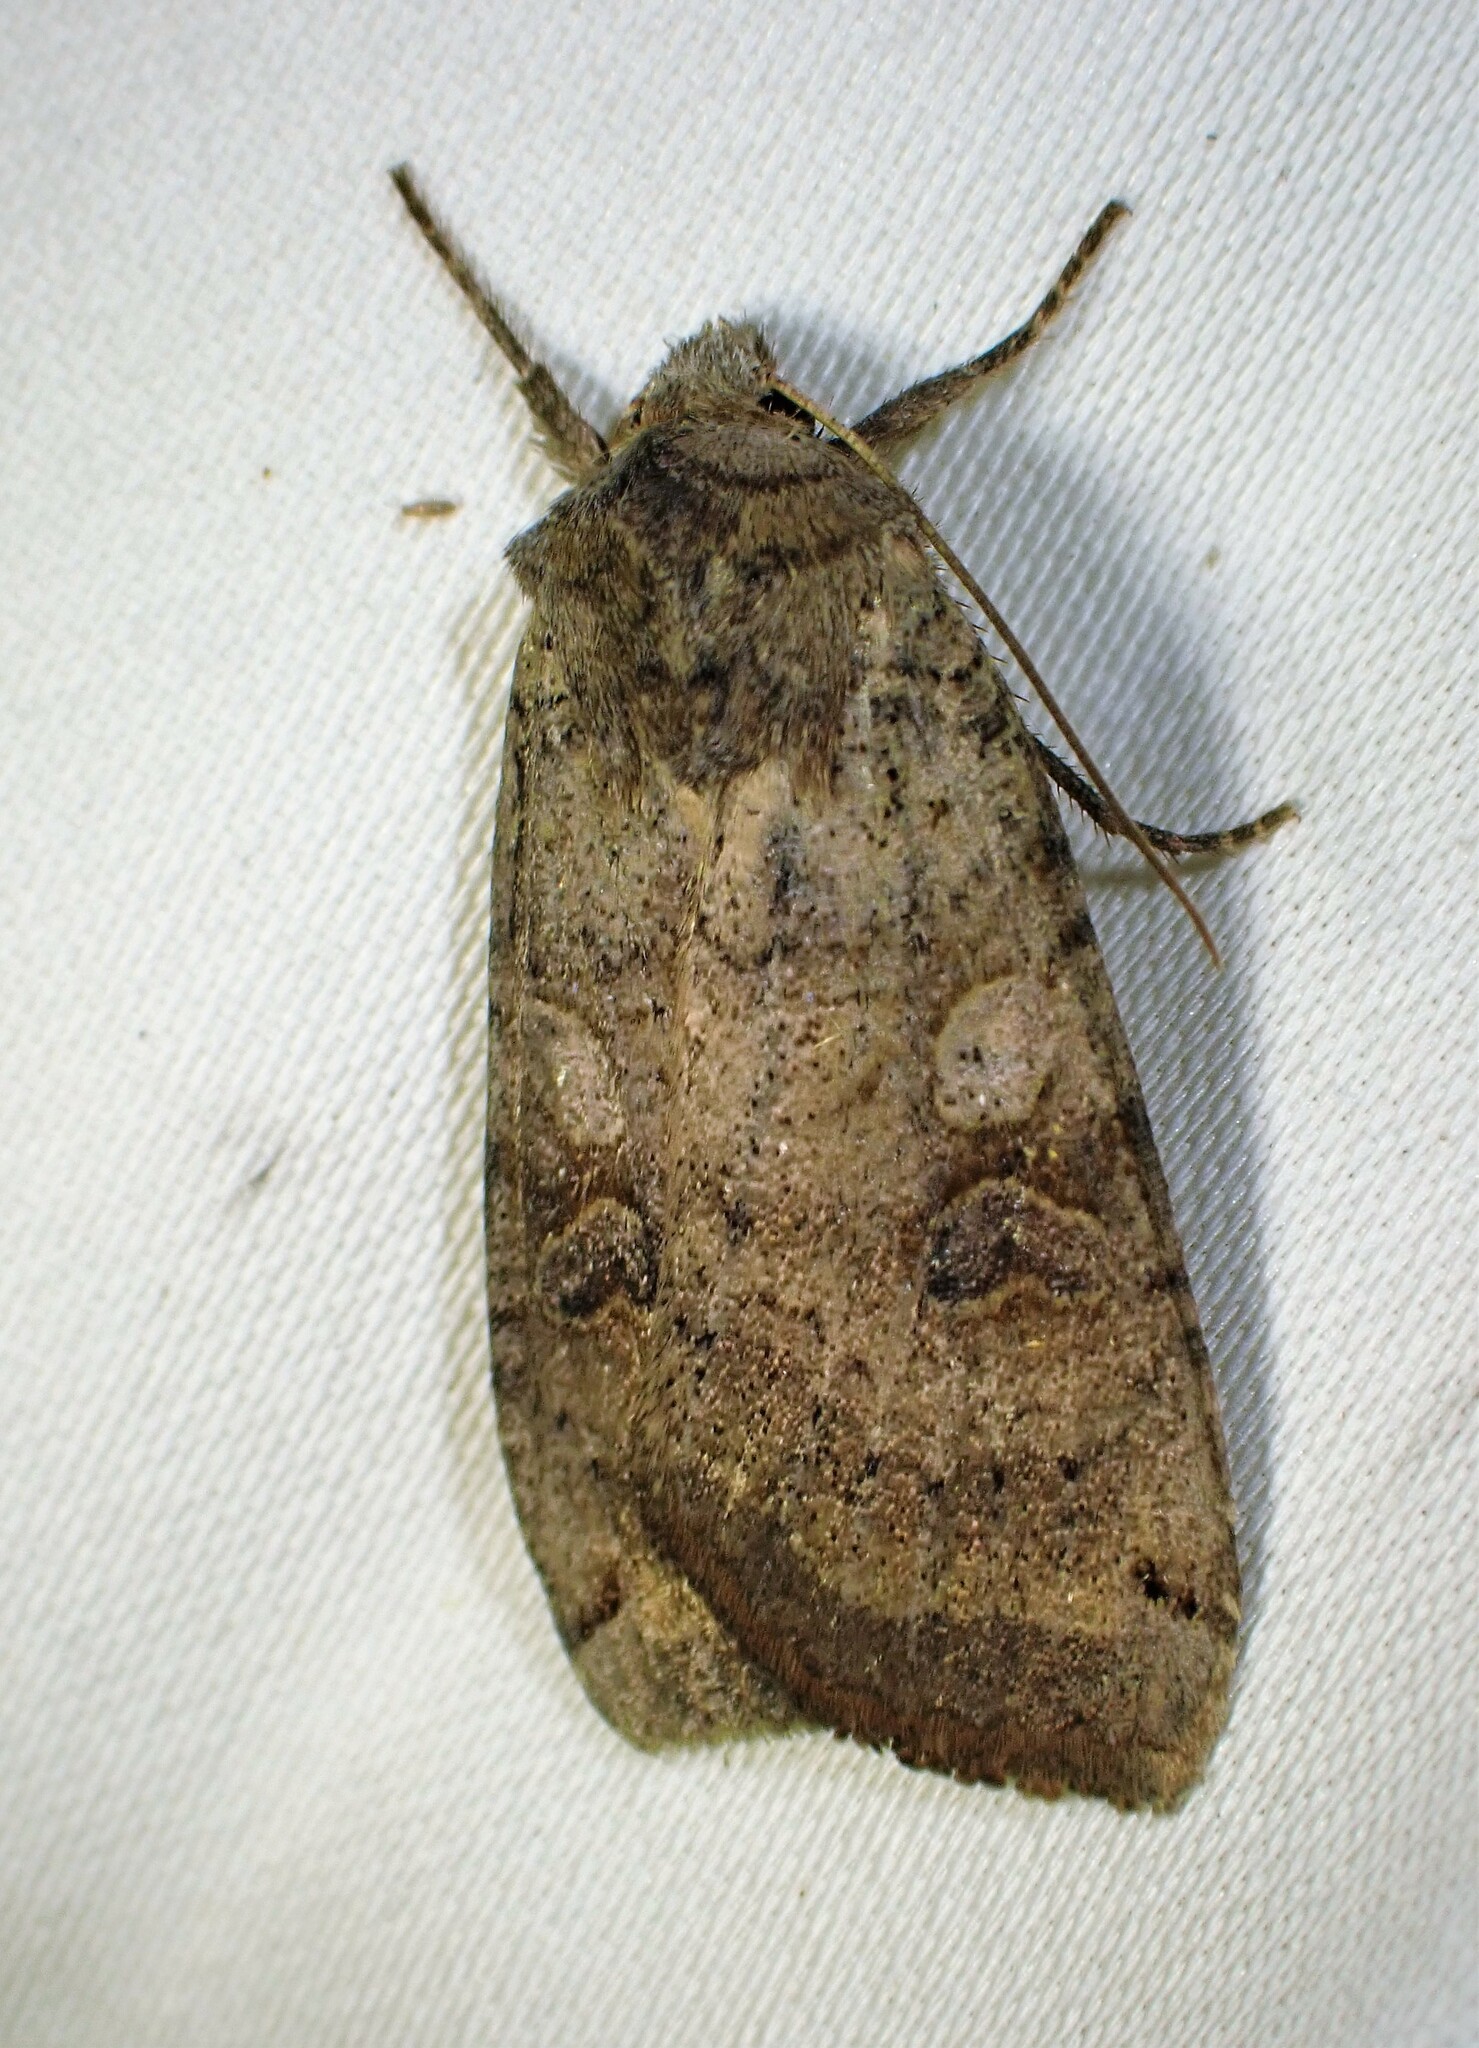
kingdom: Animalia
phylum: Arthropoda
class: Insecta
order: Lepidoptera
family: Noctuidae
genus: Xestia
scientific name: Xestia smithii
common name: Smith's dart
